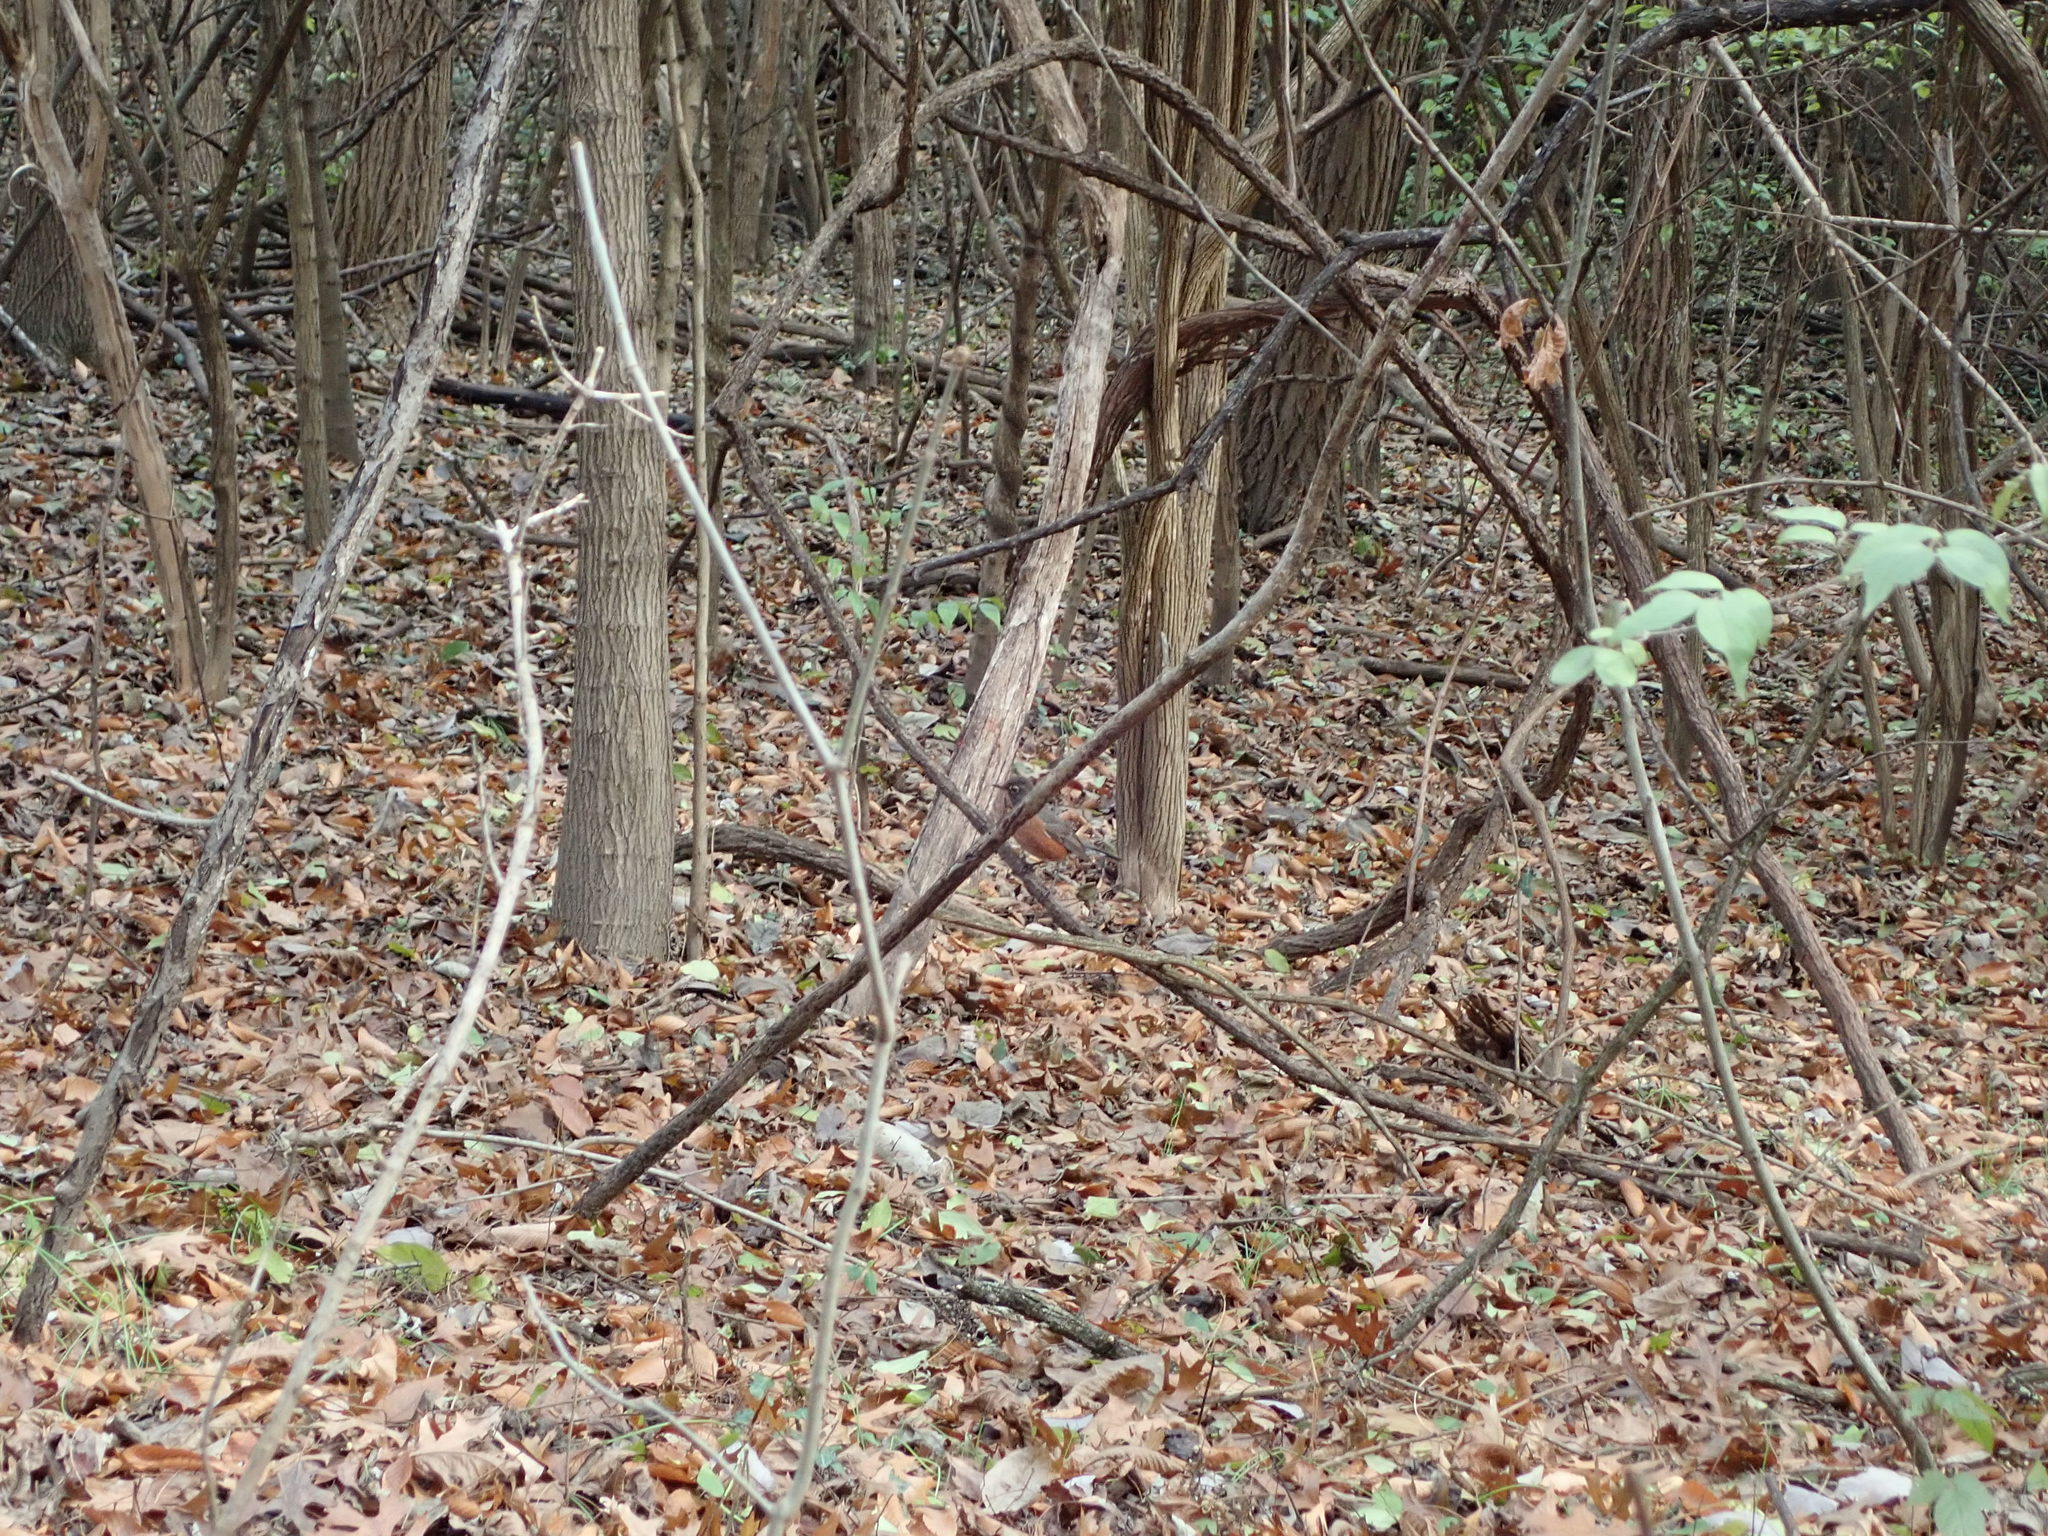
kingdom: Animalia
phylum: Chordata
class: Aves
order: Passeriformes
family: Turdidae
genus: Turdus
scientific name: Turdus migratorius
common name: American robin
